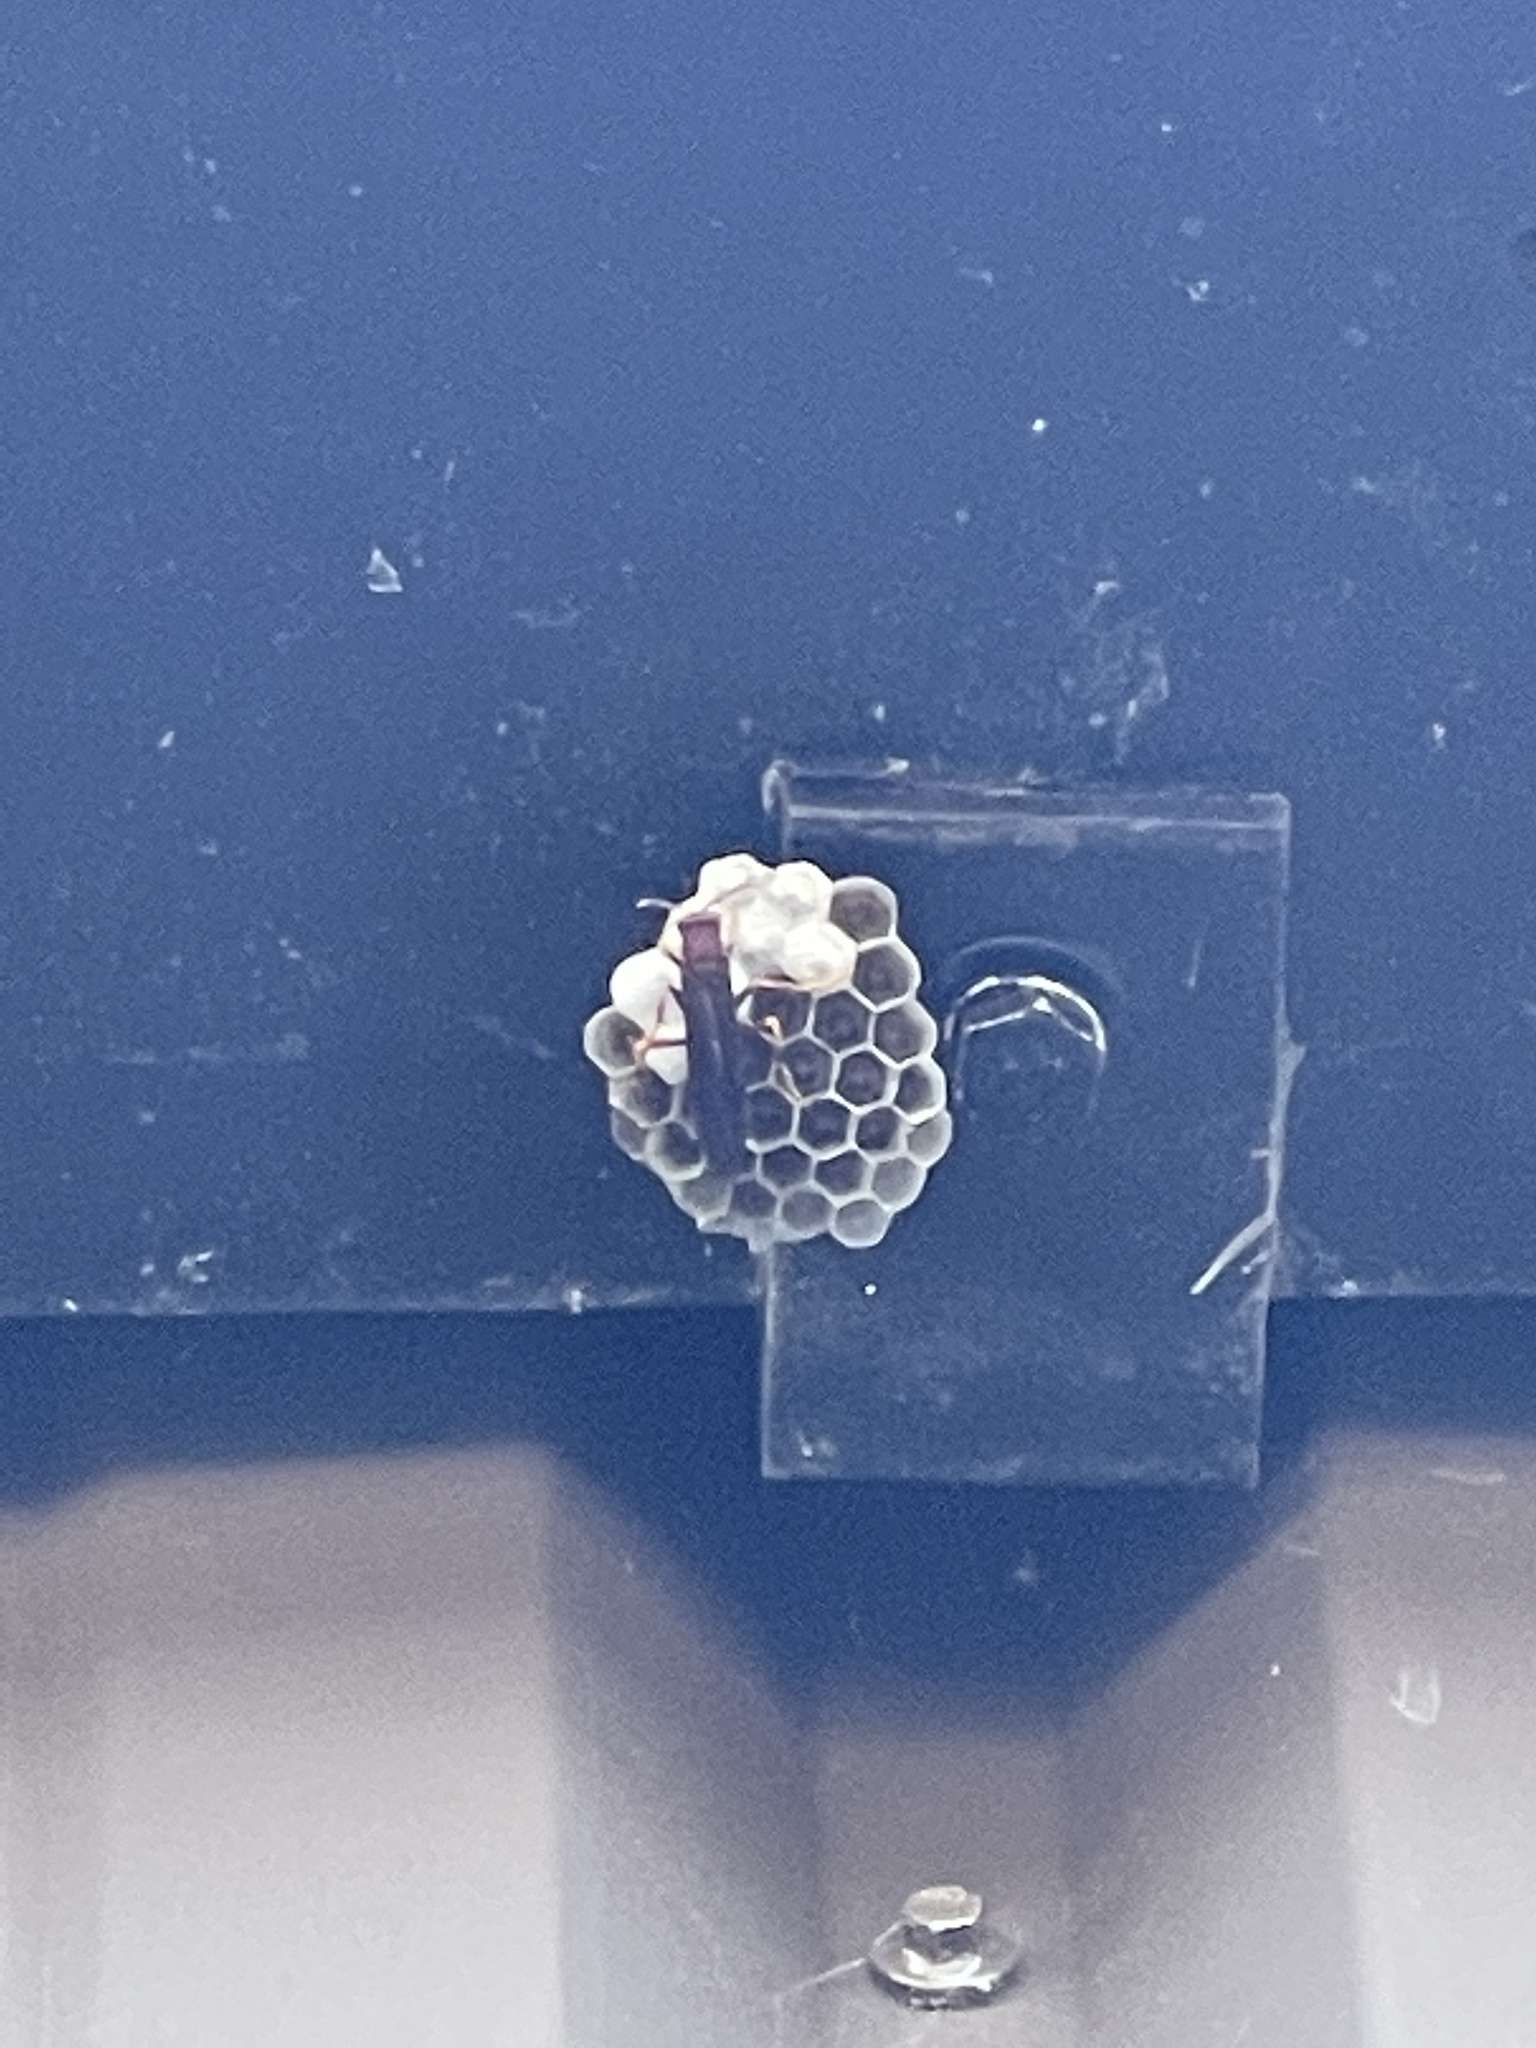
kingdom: Animalia
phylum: Arthropoda
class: Insecta
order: Hymenoptera
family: Eumenidae
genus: Polistes
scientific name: Polistes
